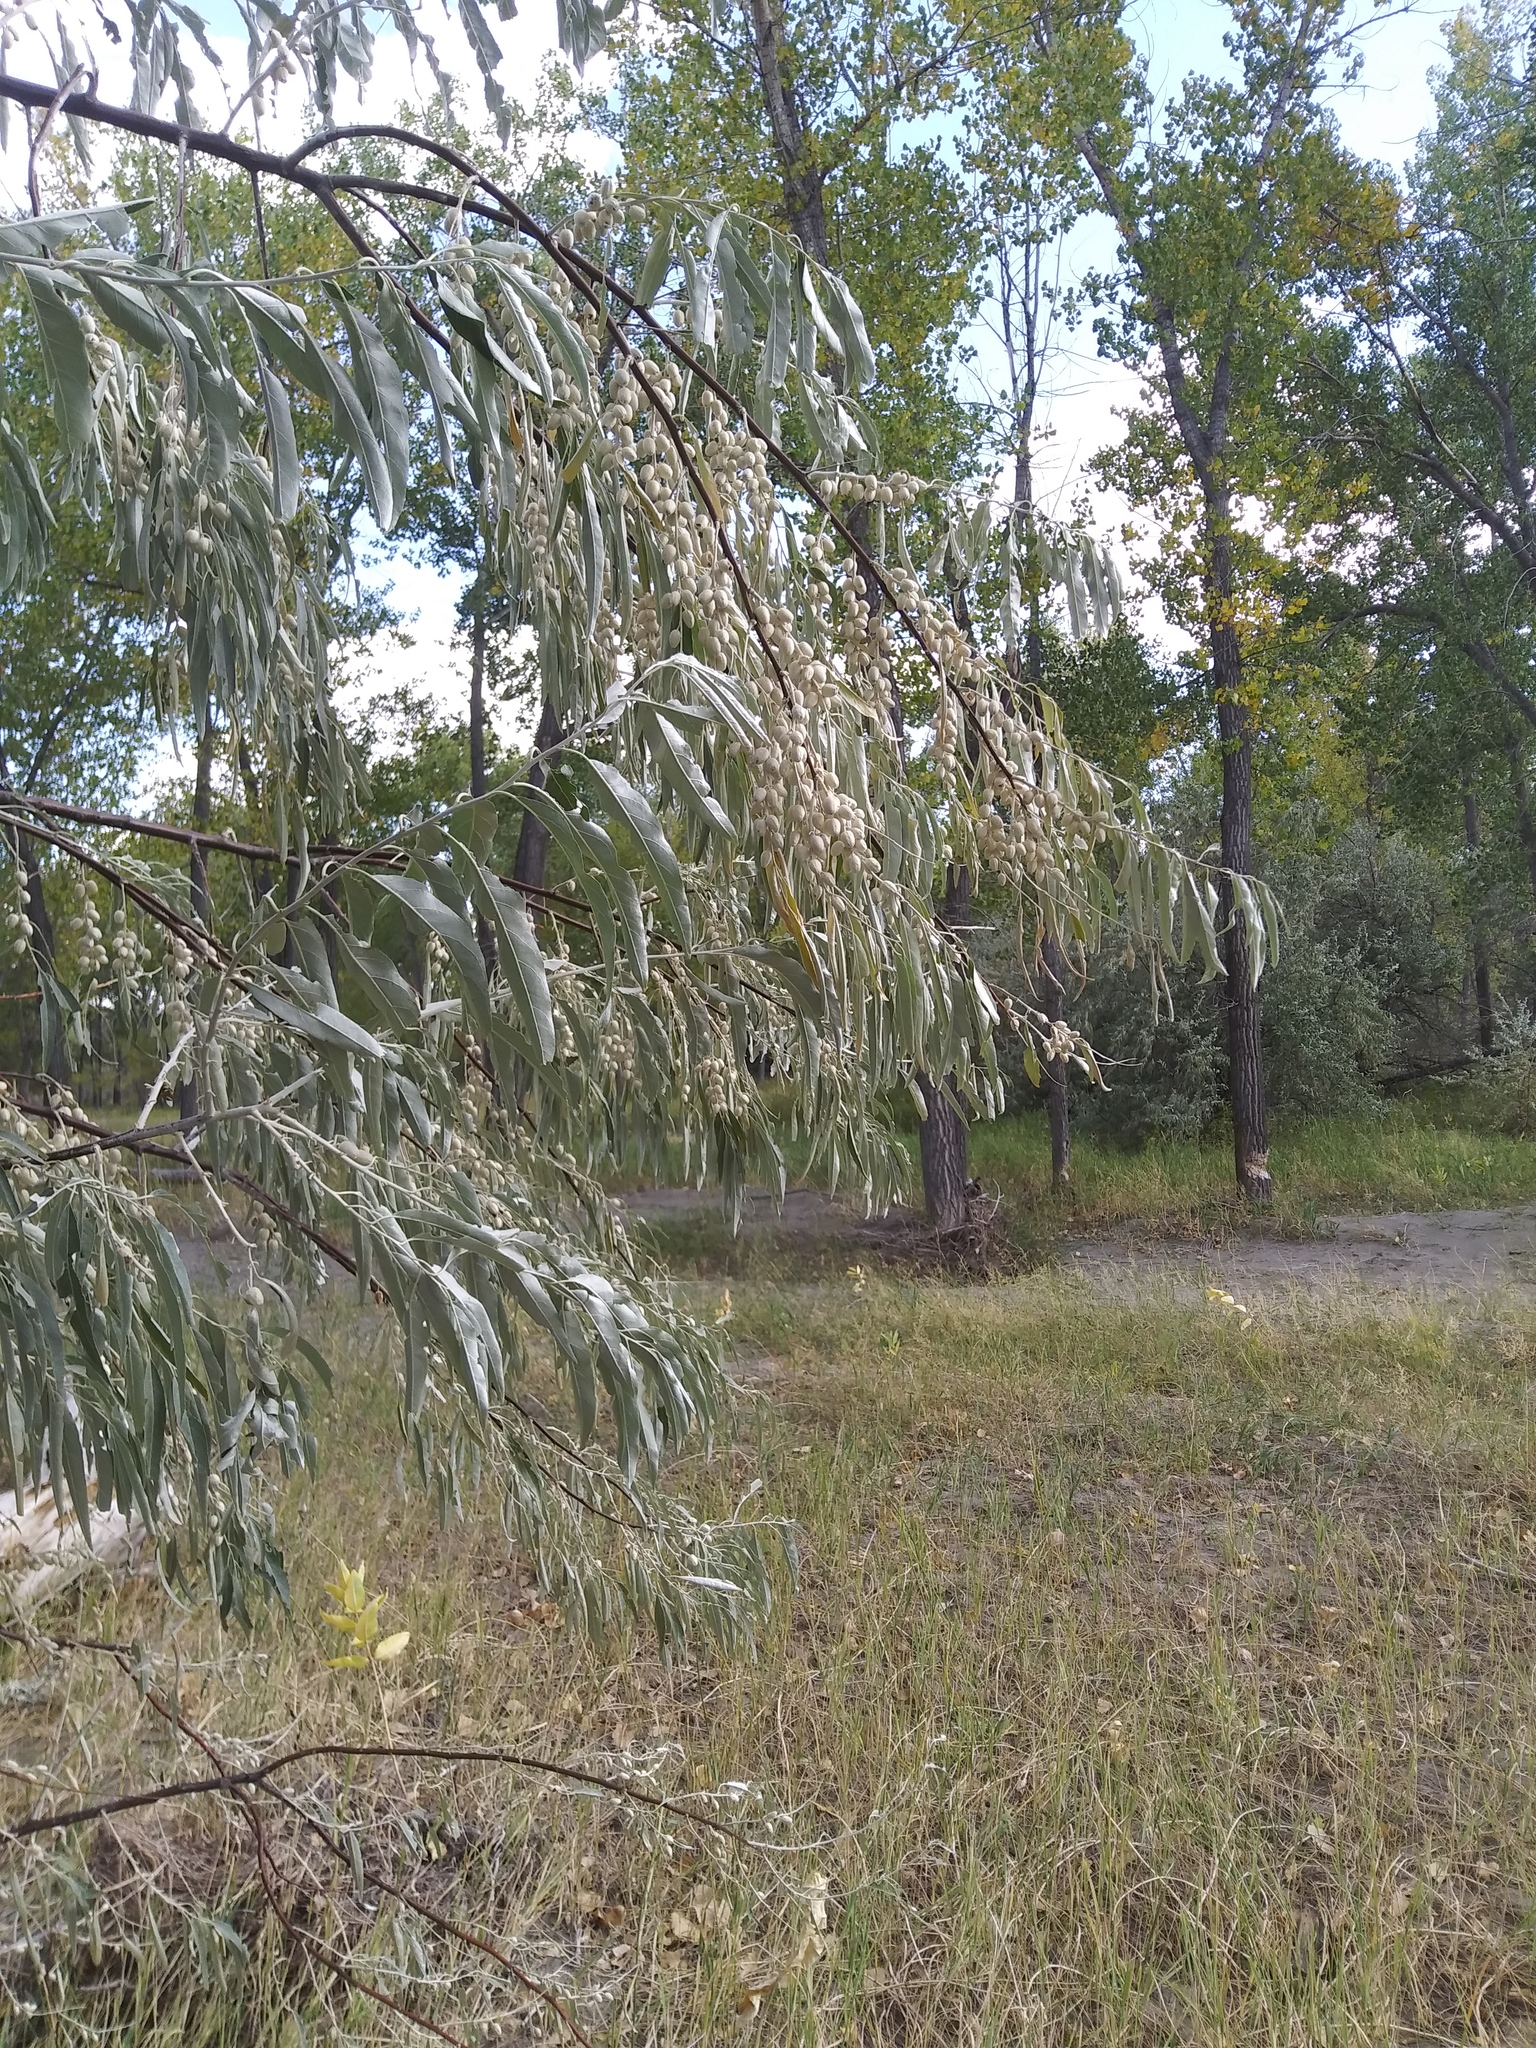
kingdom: Plantae
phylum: Tracheophyta
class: Magnoliopsida
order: Rosales
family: Elaeagnaceae
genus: Elaeagnus
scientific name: Elaeagnus angustifolia
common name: Russian olive
